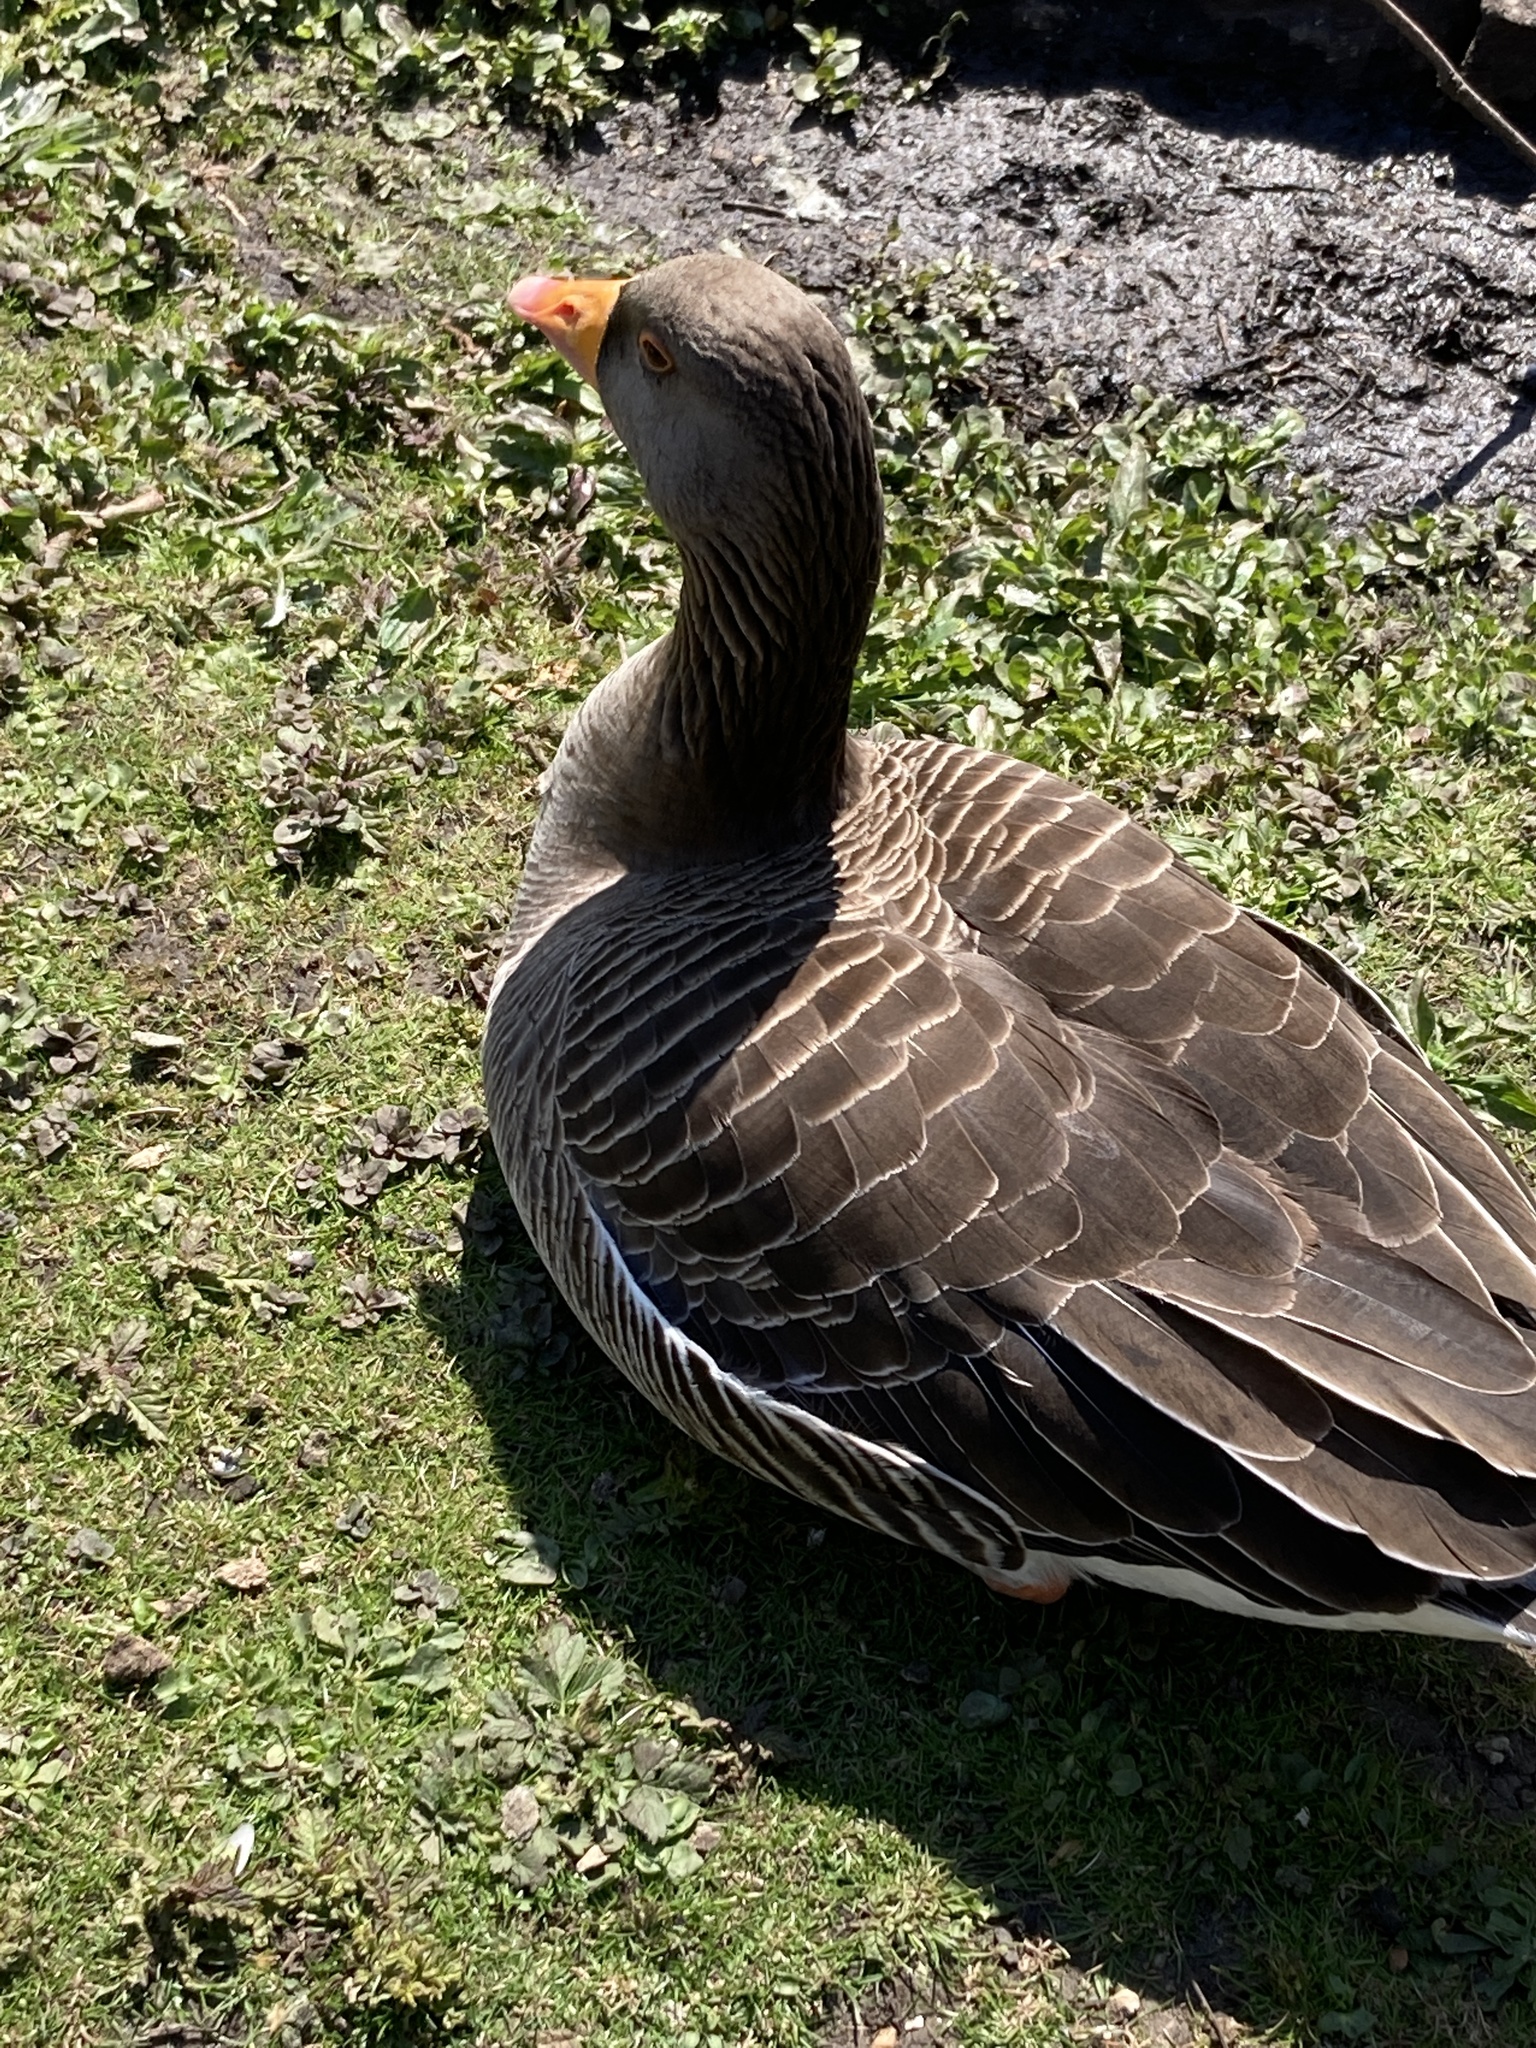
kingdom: Animalia
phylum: Chordata
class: Aves
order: Anseriformes
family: Anatidae
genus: Anser
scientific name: Anser anser
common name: Greylag goose
